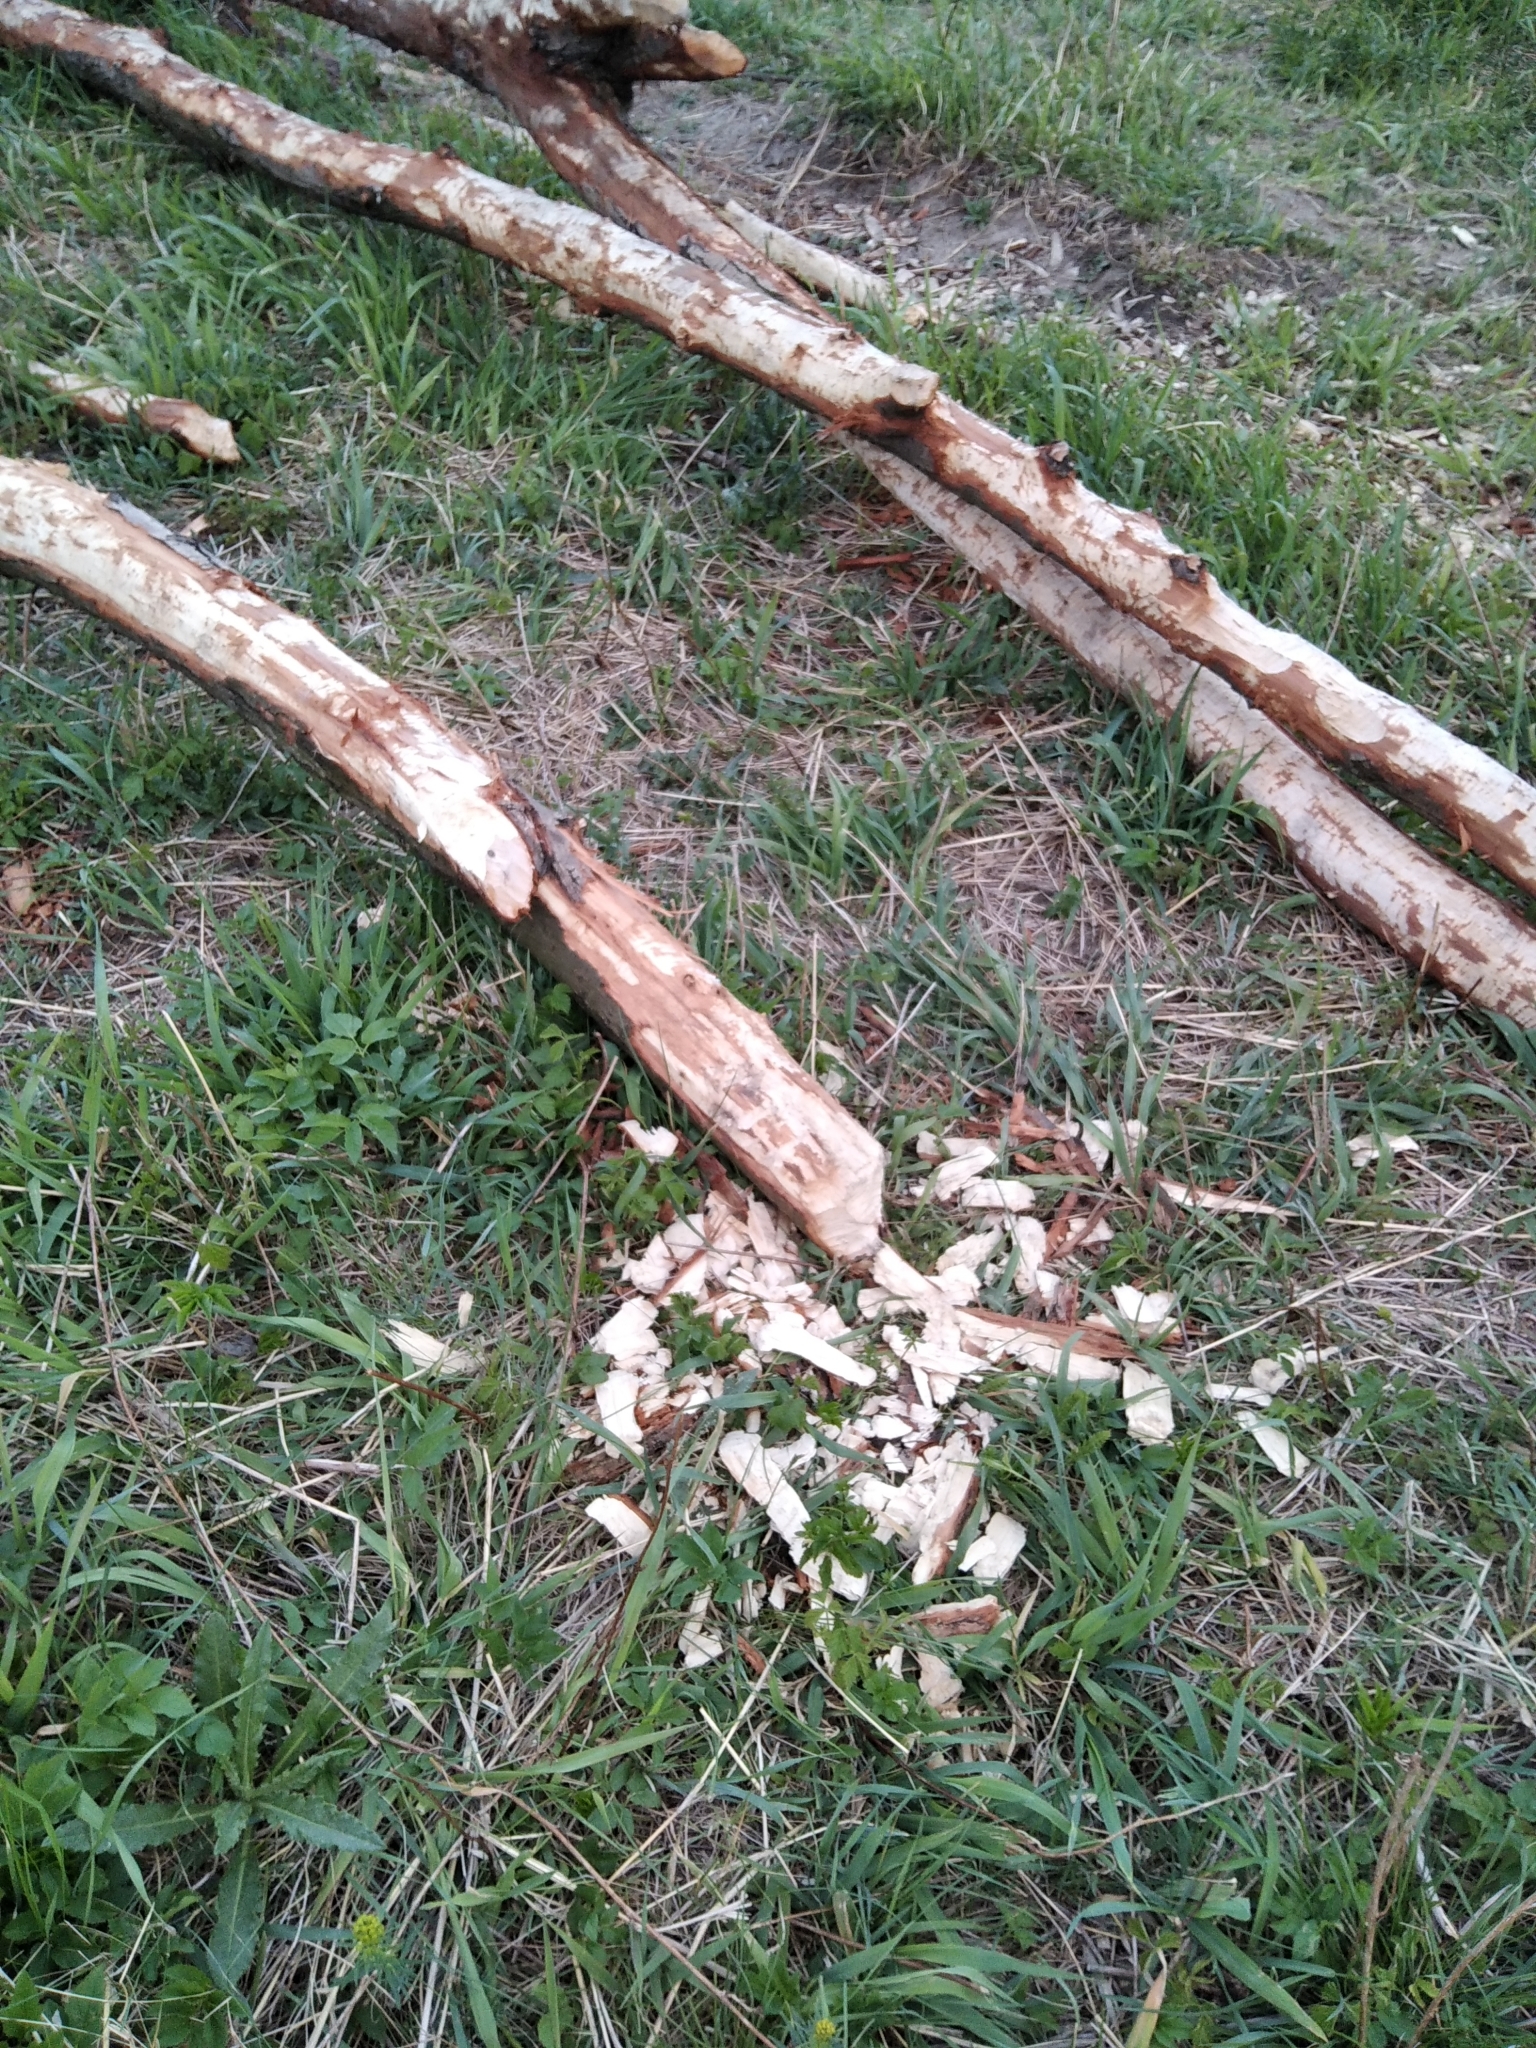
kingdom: Animalia
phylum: Chordata
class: Mammalia
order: Rodentia
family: Castoridae
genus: Castor
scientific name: Castor fiber
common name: Eurasian beaver
